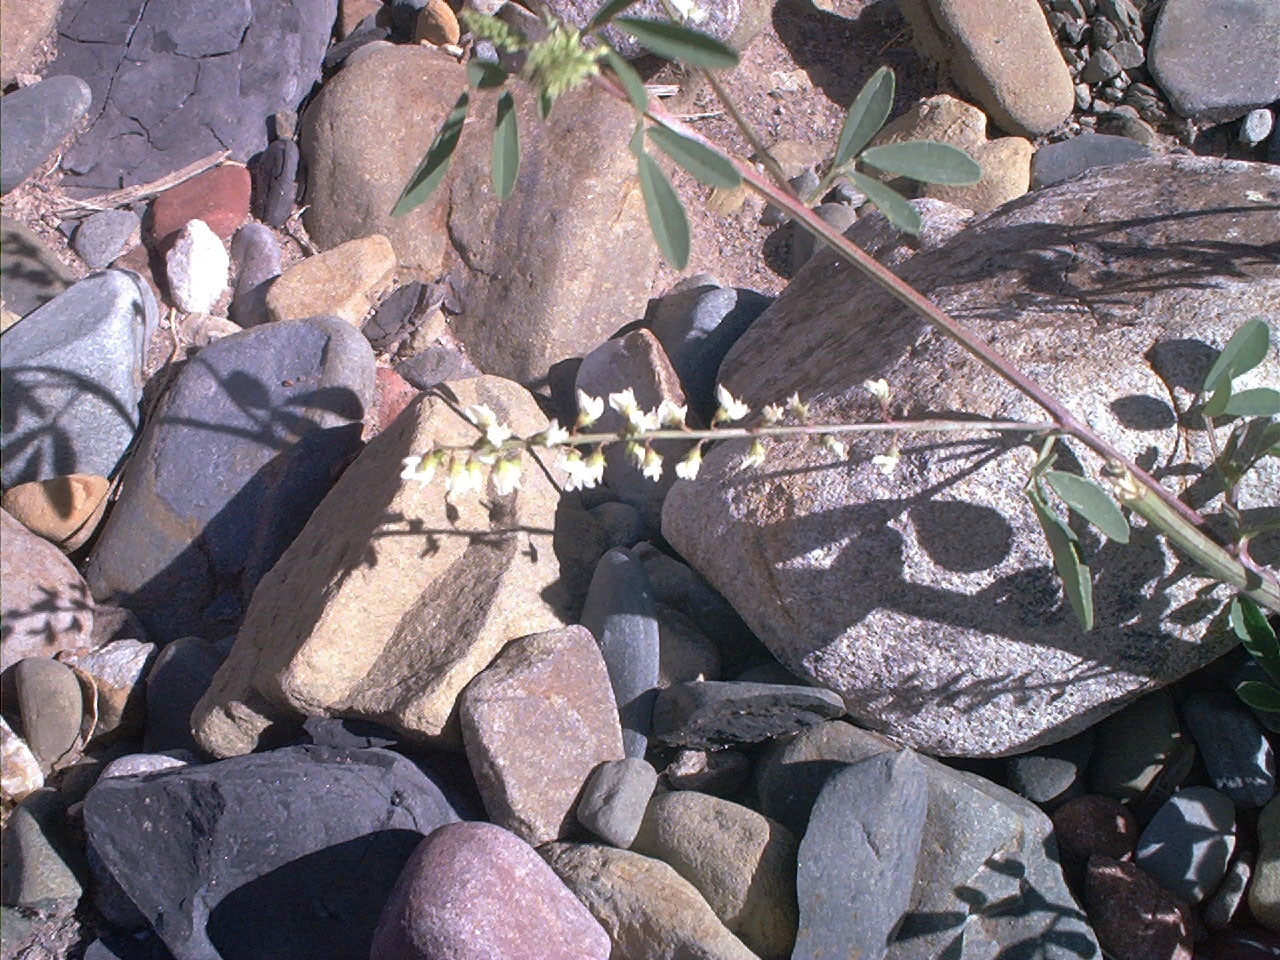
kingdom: Plantae
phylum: Tracheophyta
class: Magnoliopsida
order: Fabales
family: Fabaceae
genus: Melilotus
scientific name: Melilotus albus
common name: White melilot
